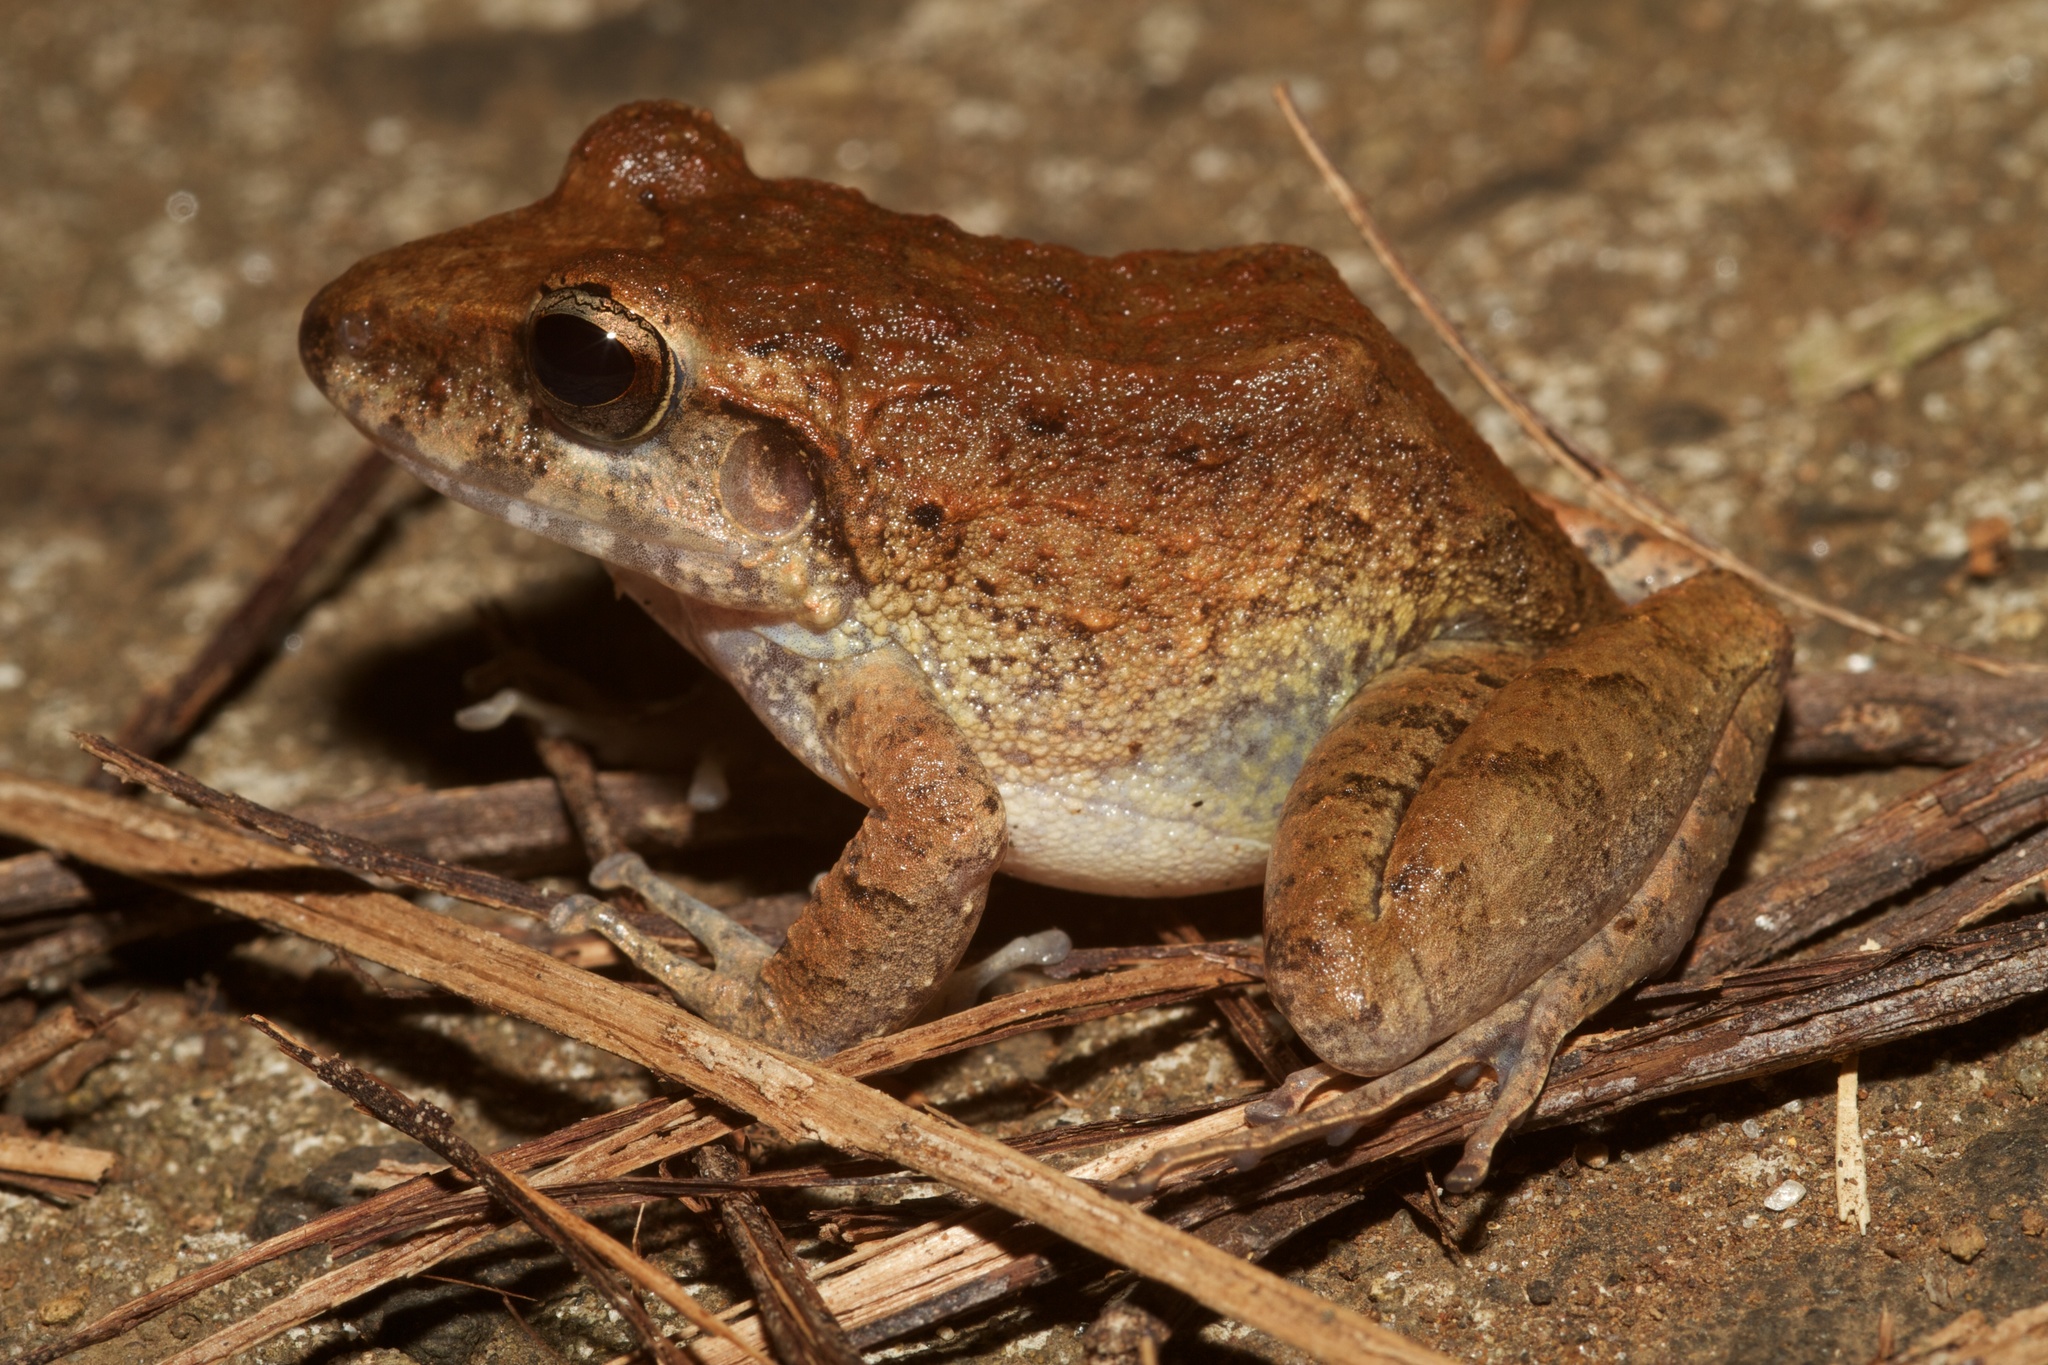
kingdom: Animalia
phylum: Chordata
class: Amphibia
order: Anura
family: Craugastoridae
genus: Craugastor
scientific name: Craugastor fitzingeri
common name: Fitzinger's robber frog
